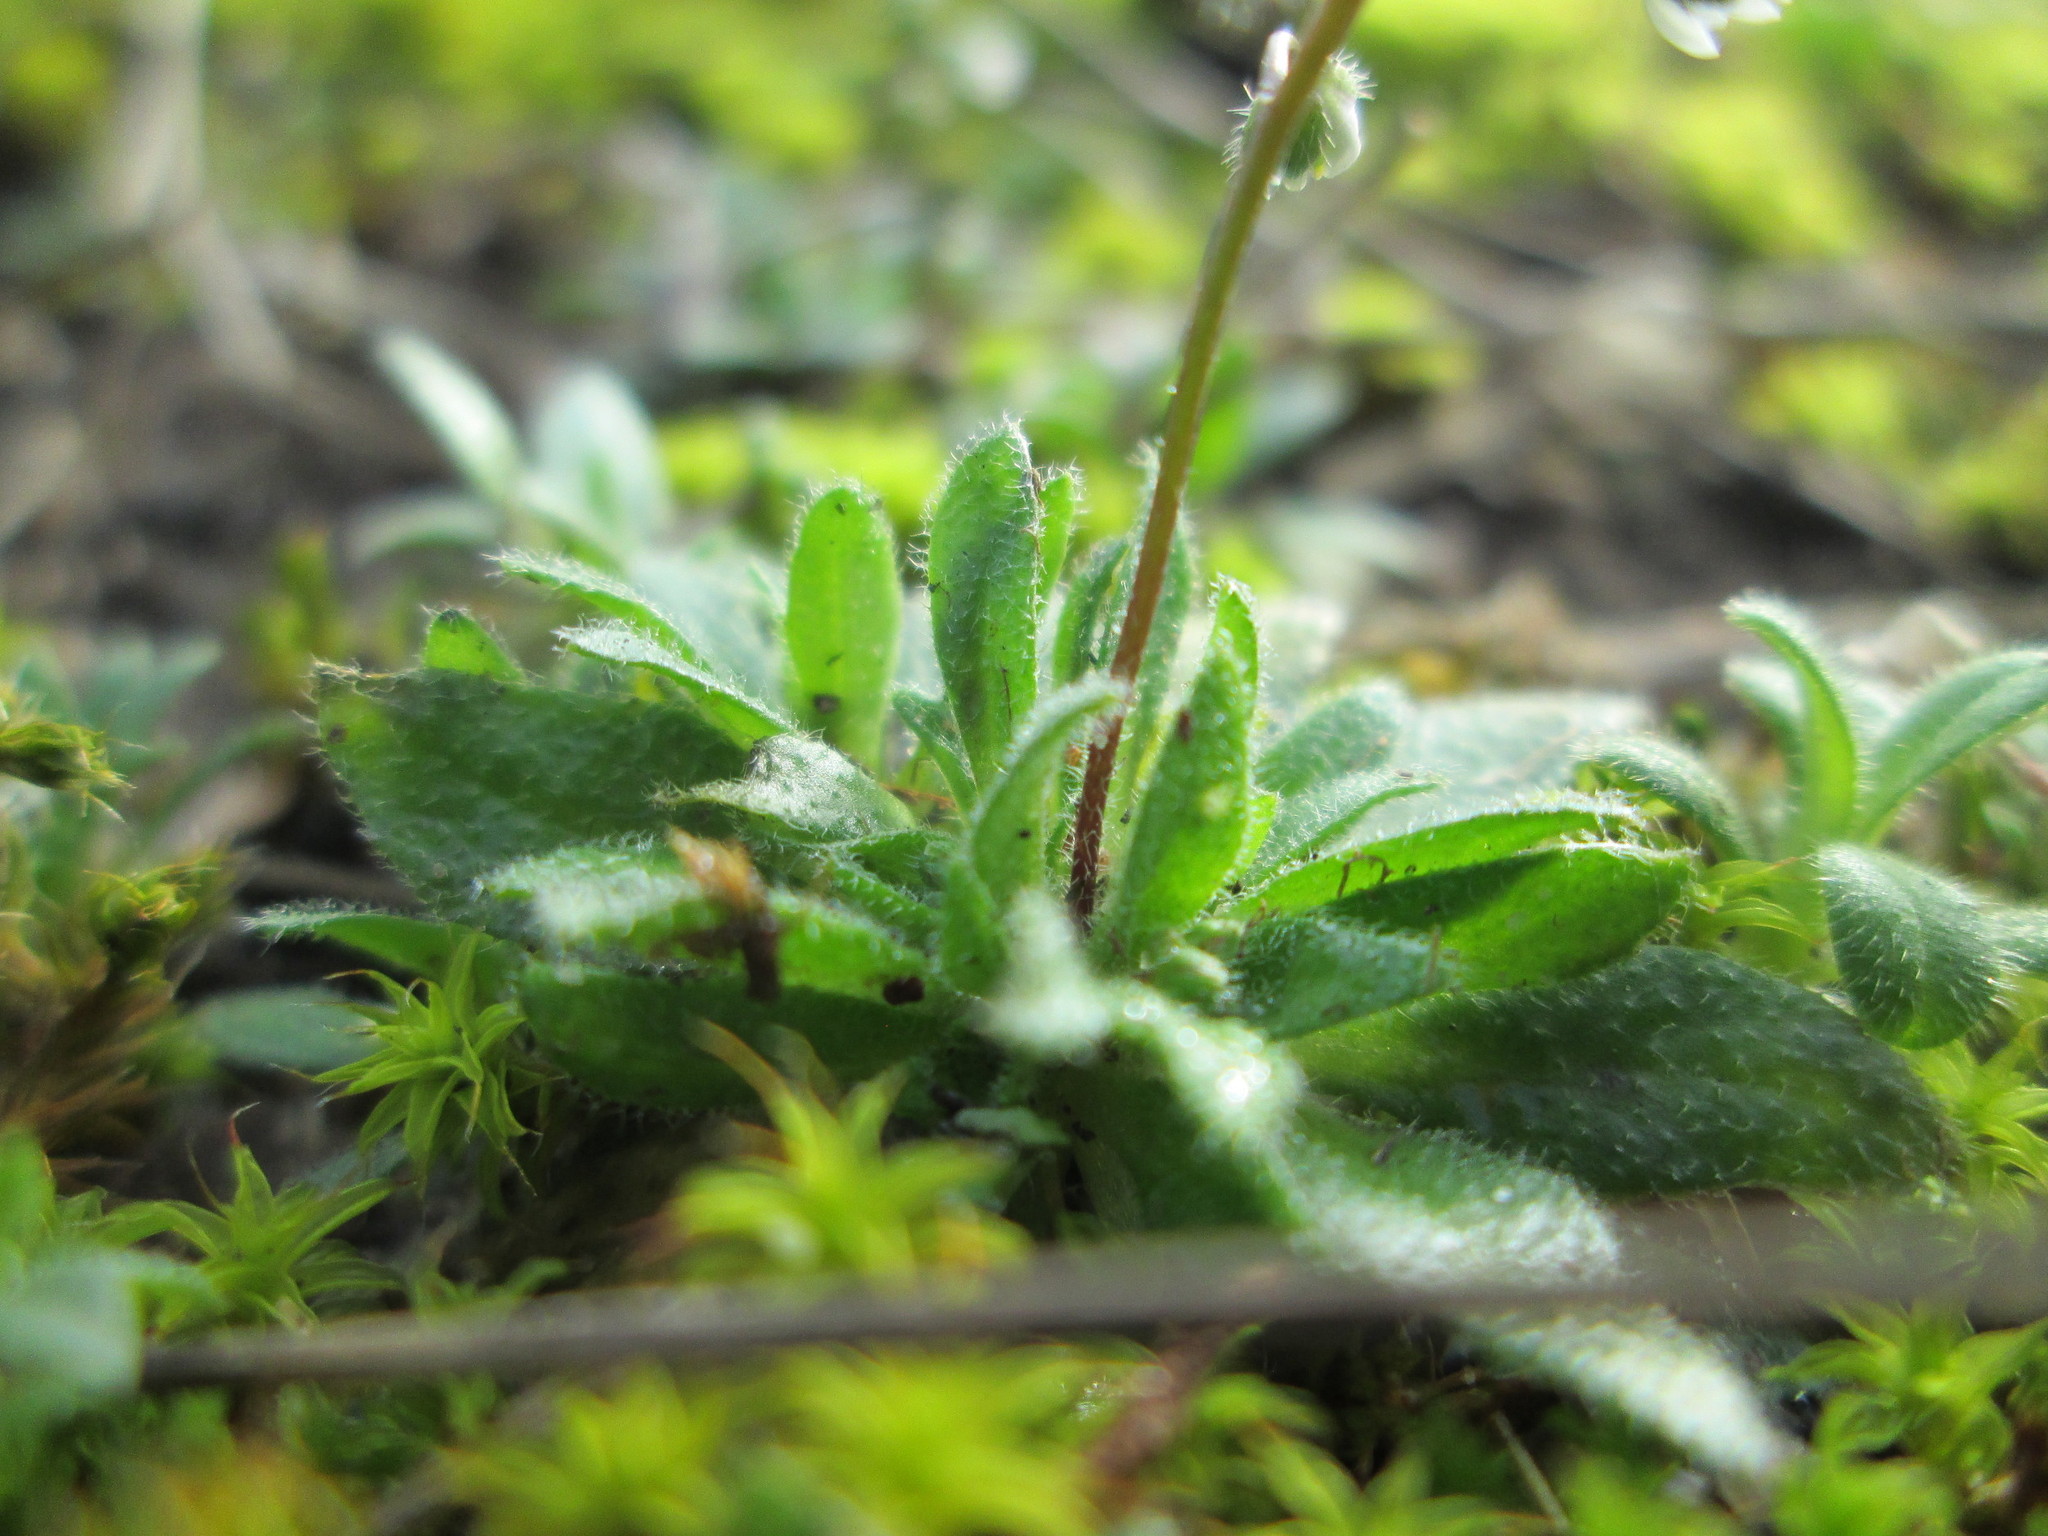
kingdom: Plantae
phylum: Tracheophyta
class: Magnoliopsida
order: Brassicales
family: Brassicaceae
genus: Draba
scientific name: Draba verna
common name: Spring draba
